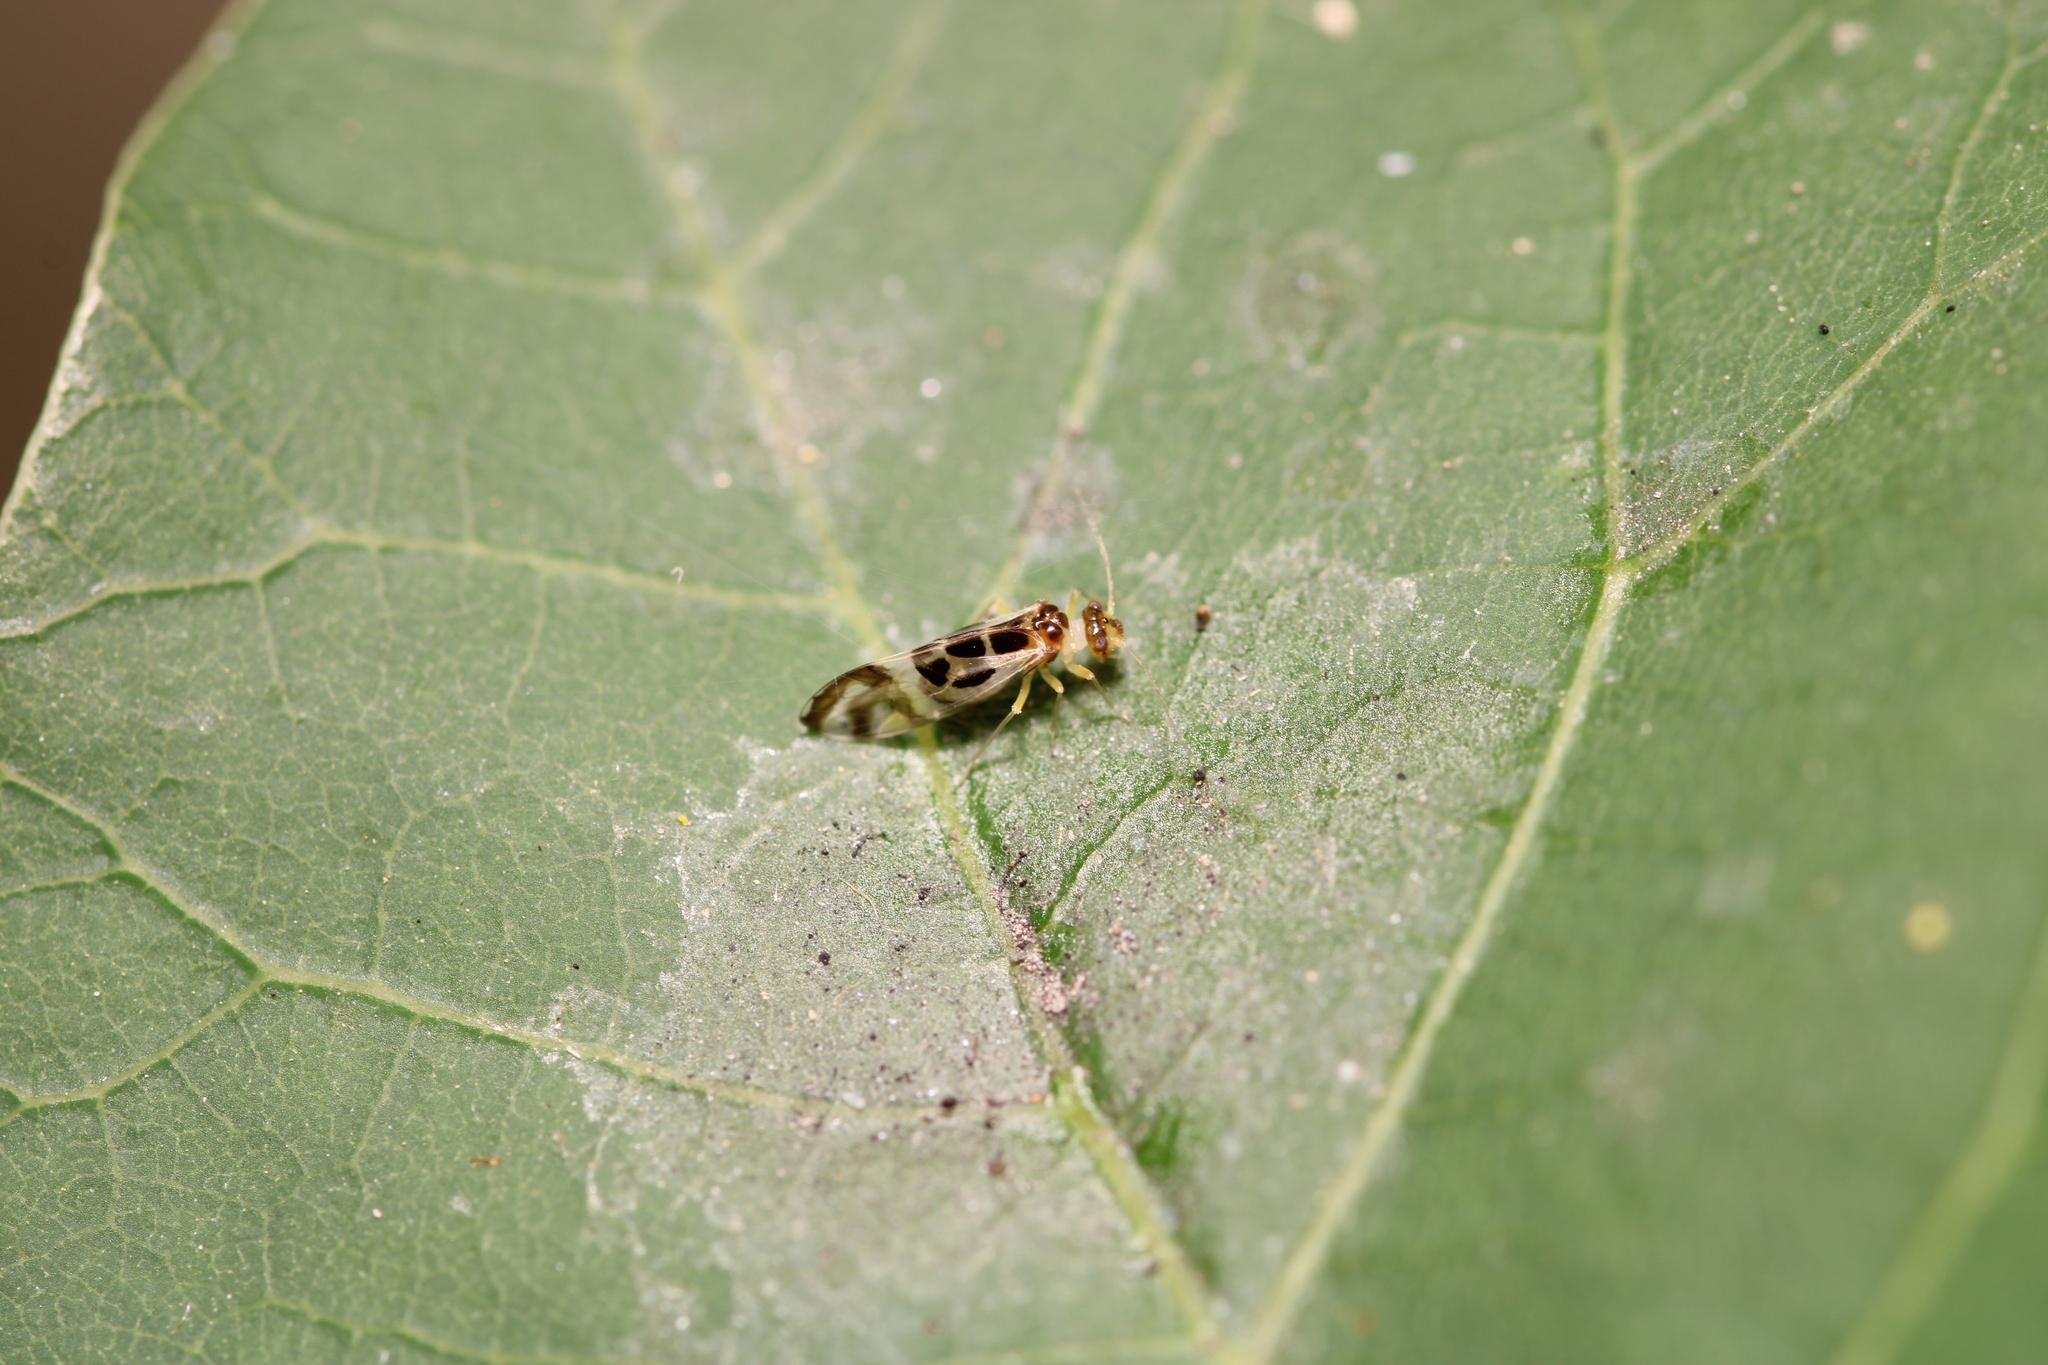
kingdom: Animalia
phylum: Arthropoda
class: Insecta
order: Psocodea
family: Stenopsocidae
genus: Graphopsocus
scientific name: Graphopsocus cruciatus
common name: Lizard bark louse
